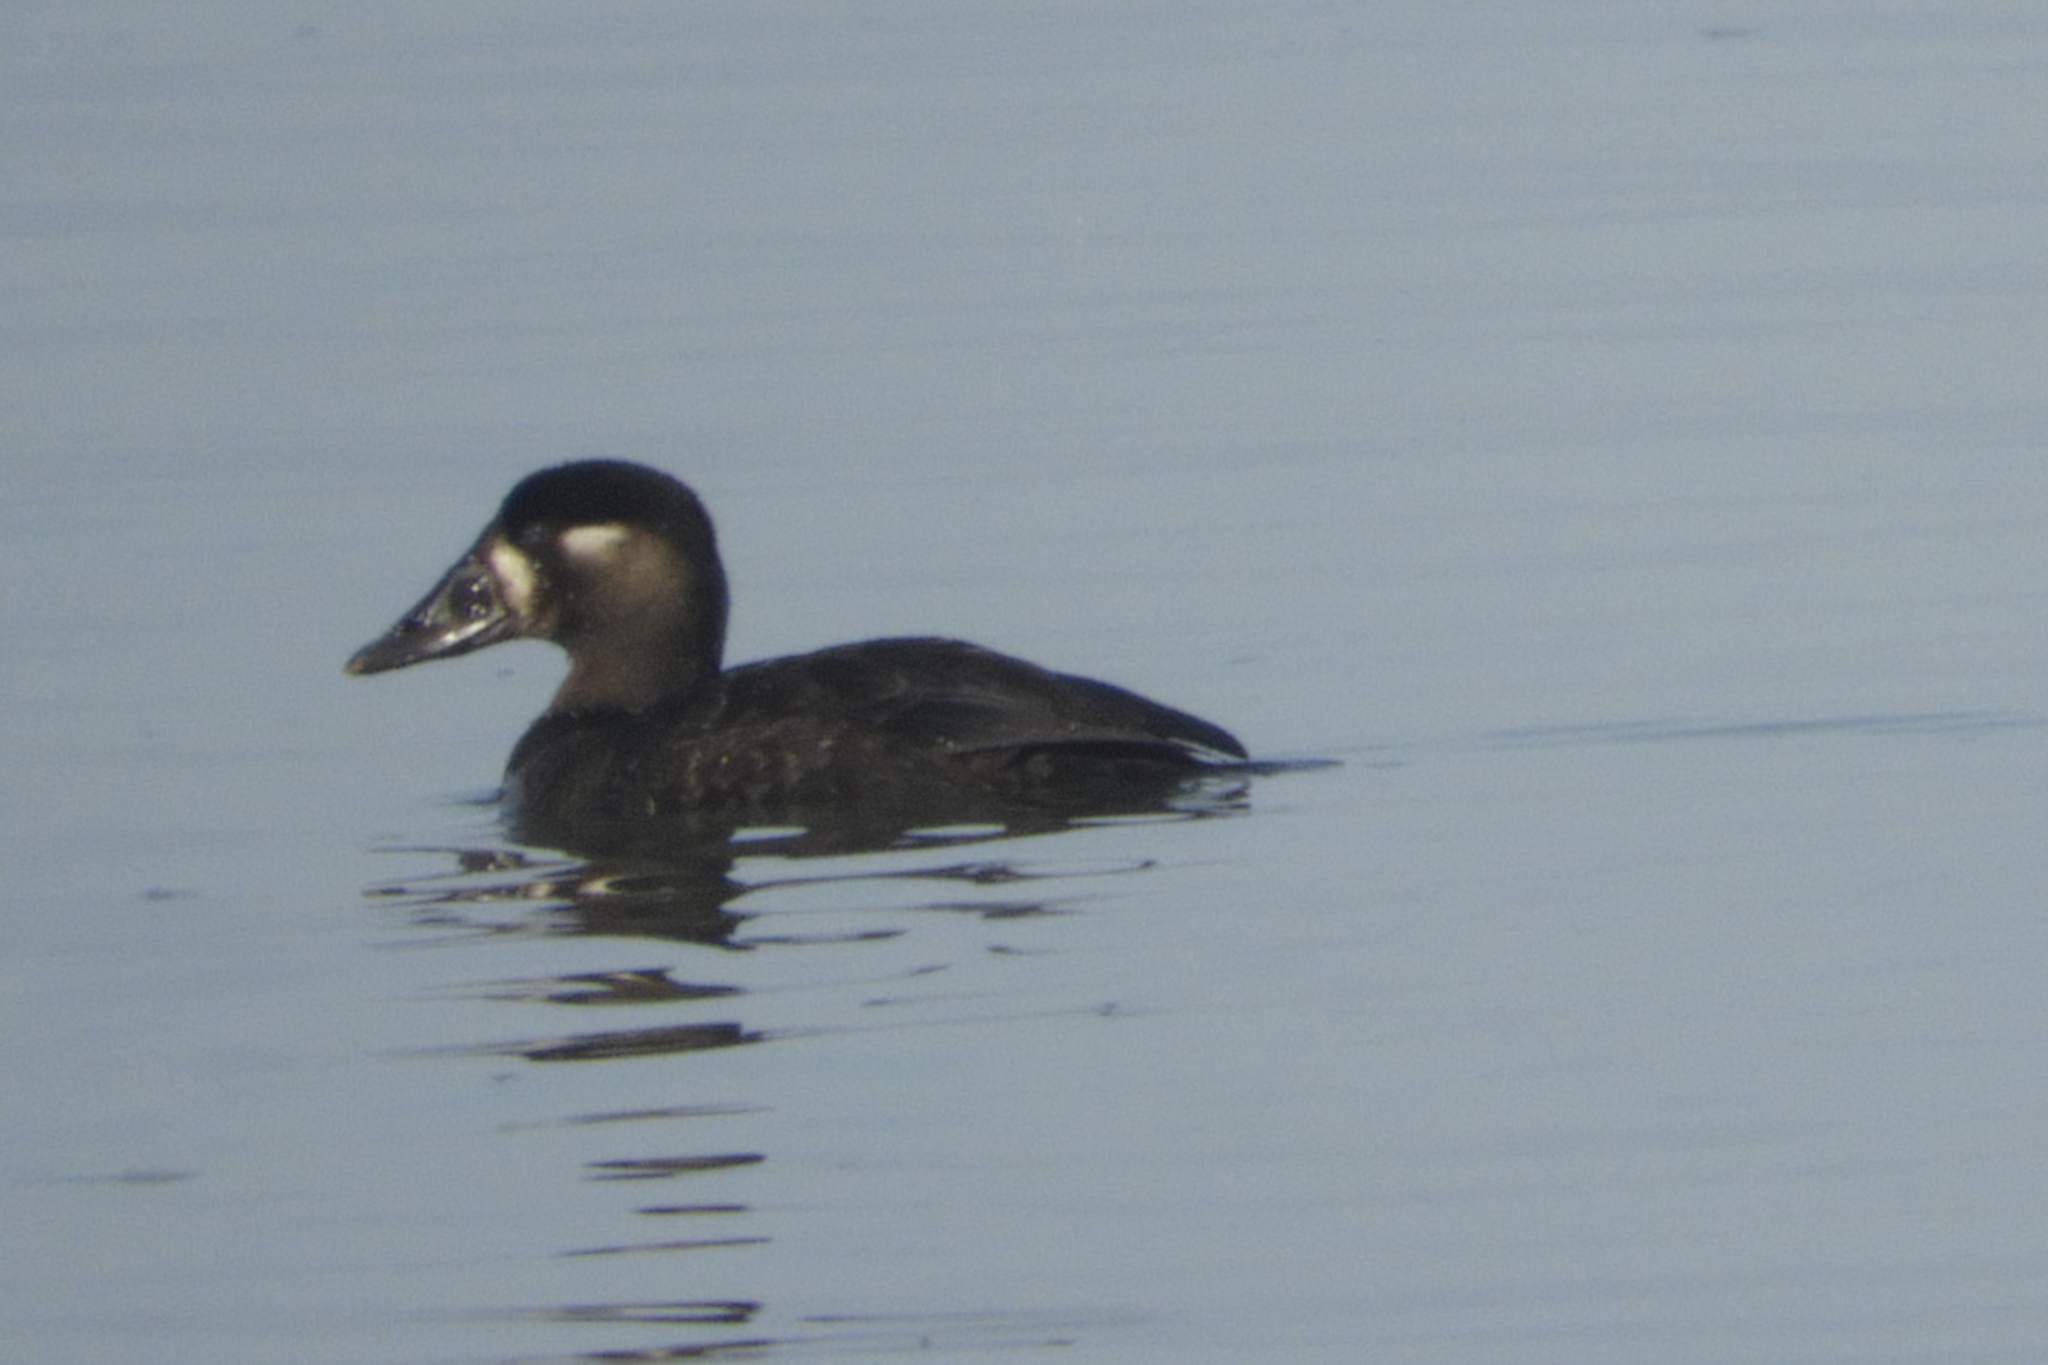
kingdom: Animalia
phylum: Chordata
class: Aves
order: Anseriformes
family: Anatidae
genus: Melanitta
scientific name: Melanitta perspicillata
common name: Surf scoter
